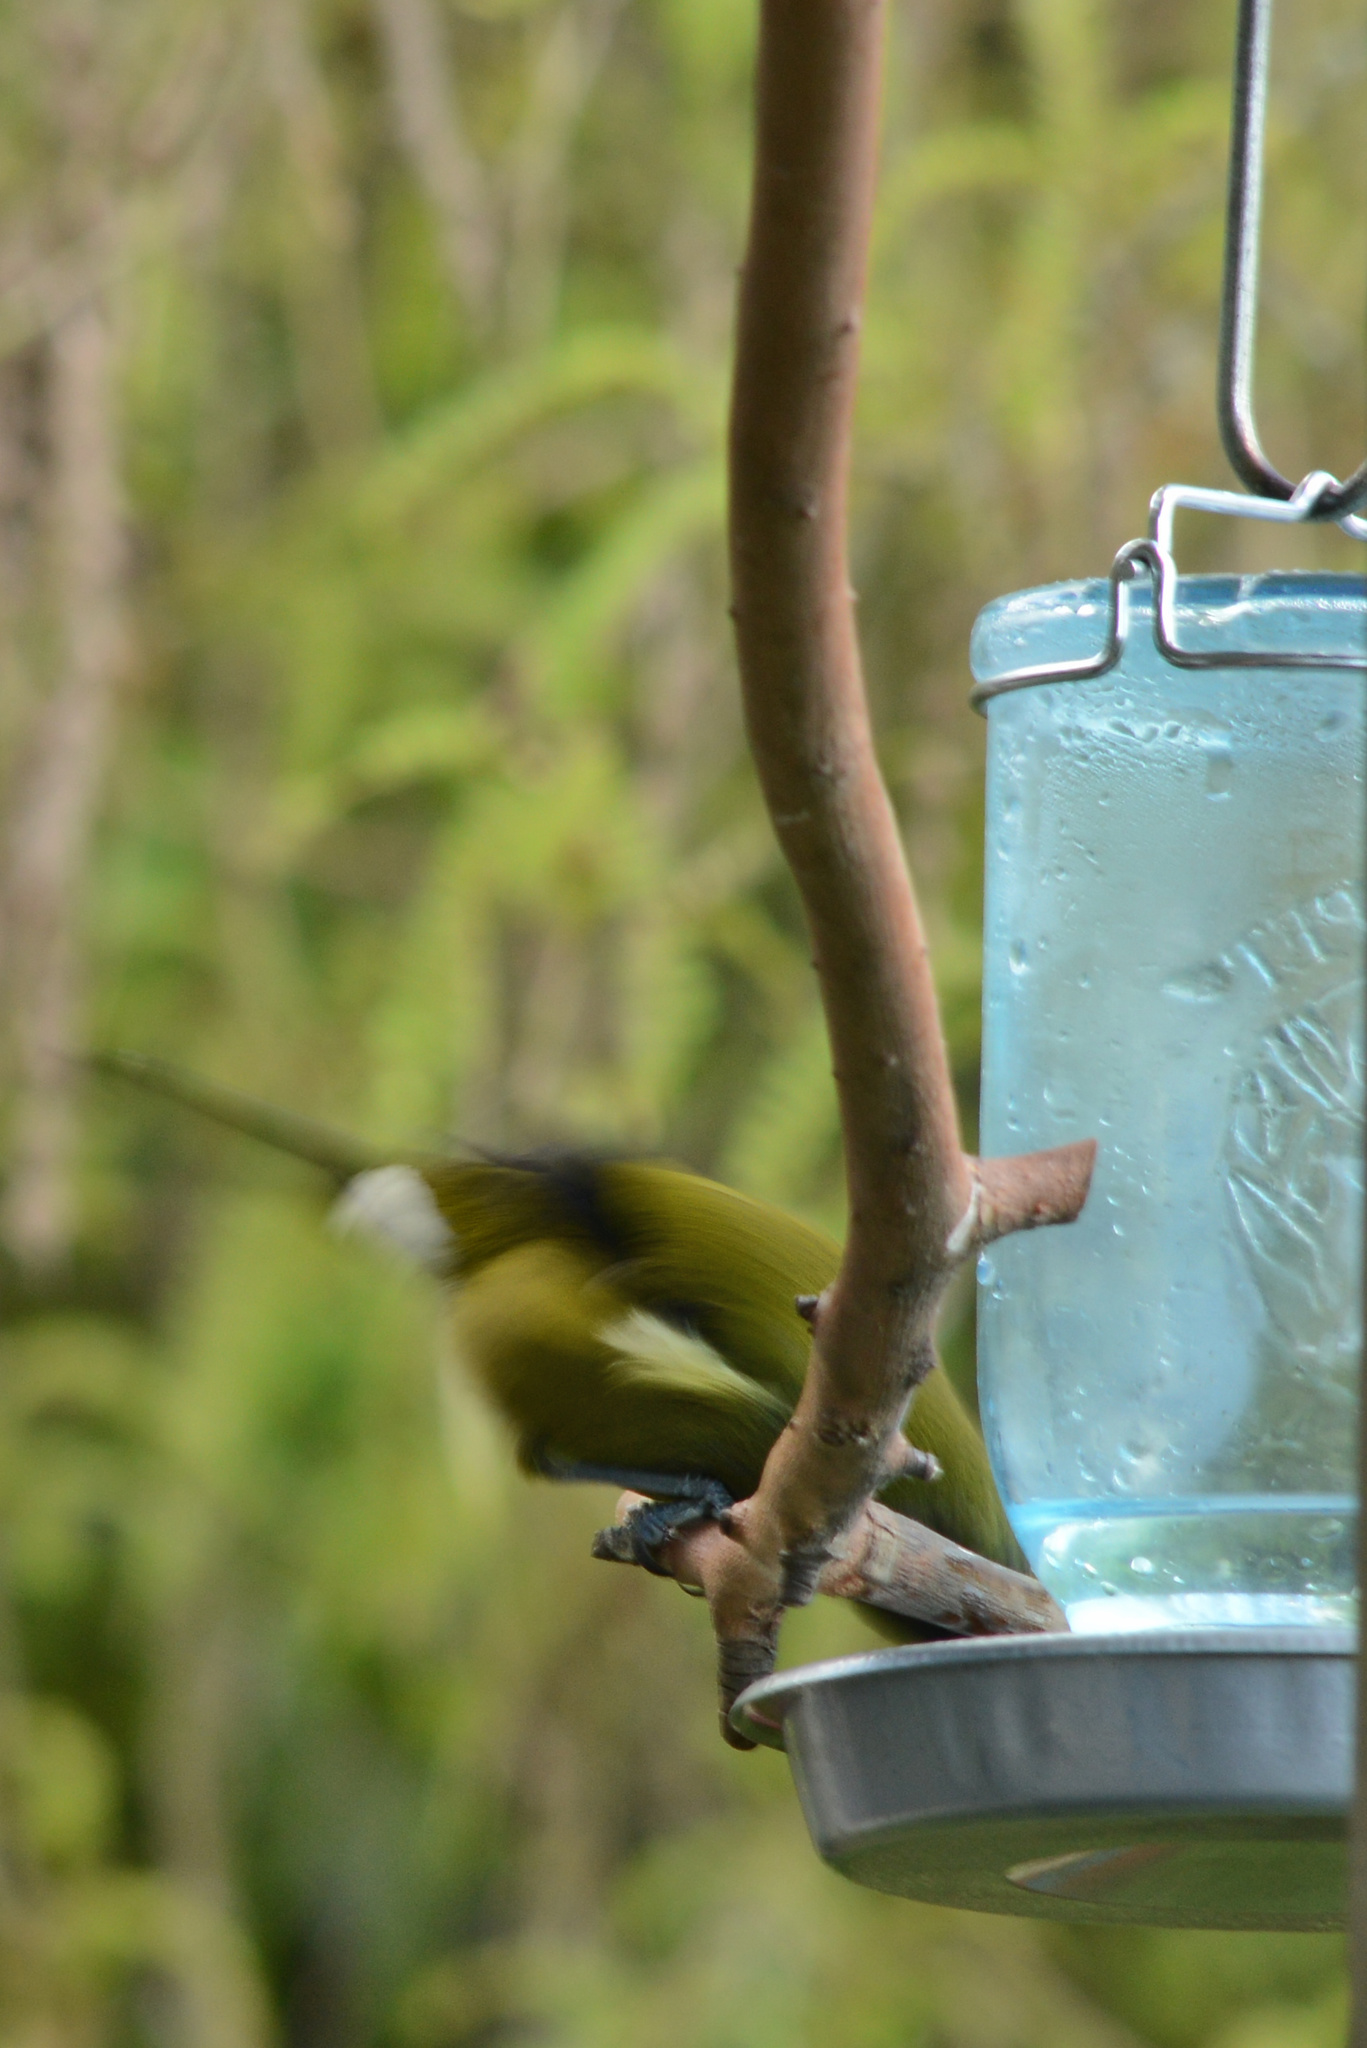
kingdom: Animalia
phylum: Chordata
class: Aves
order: Passeriformes
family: Meliphagidae
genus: Anthornis
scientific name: Anthornis melanura
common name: New zealand bellbird
